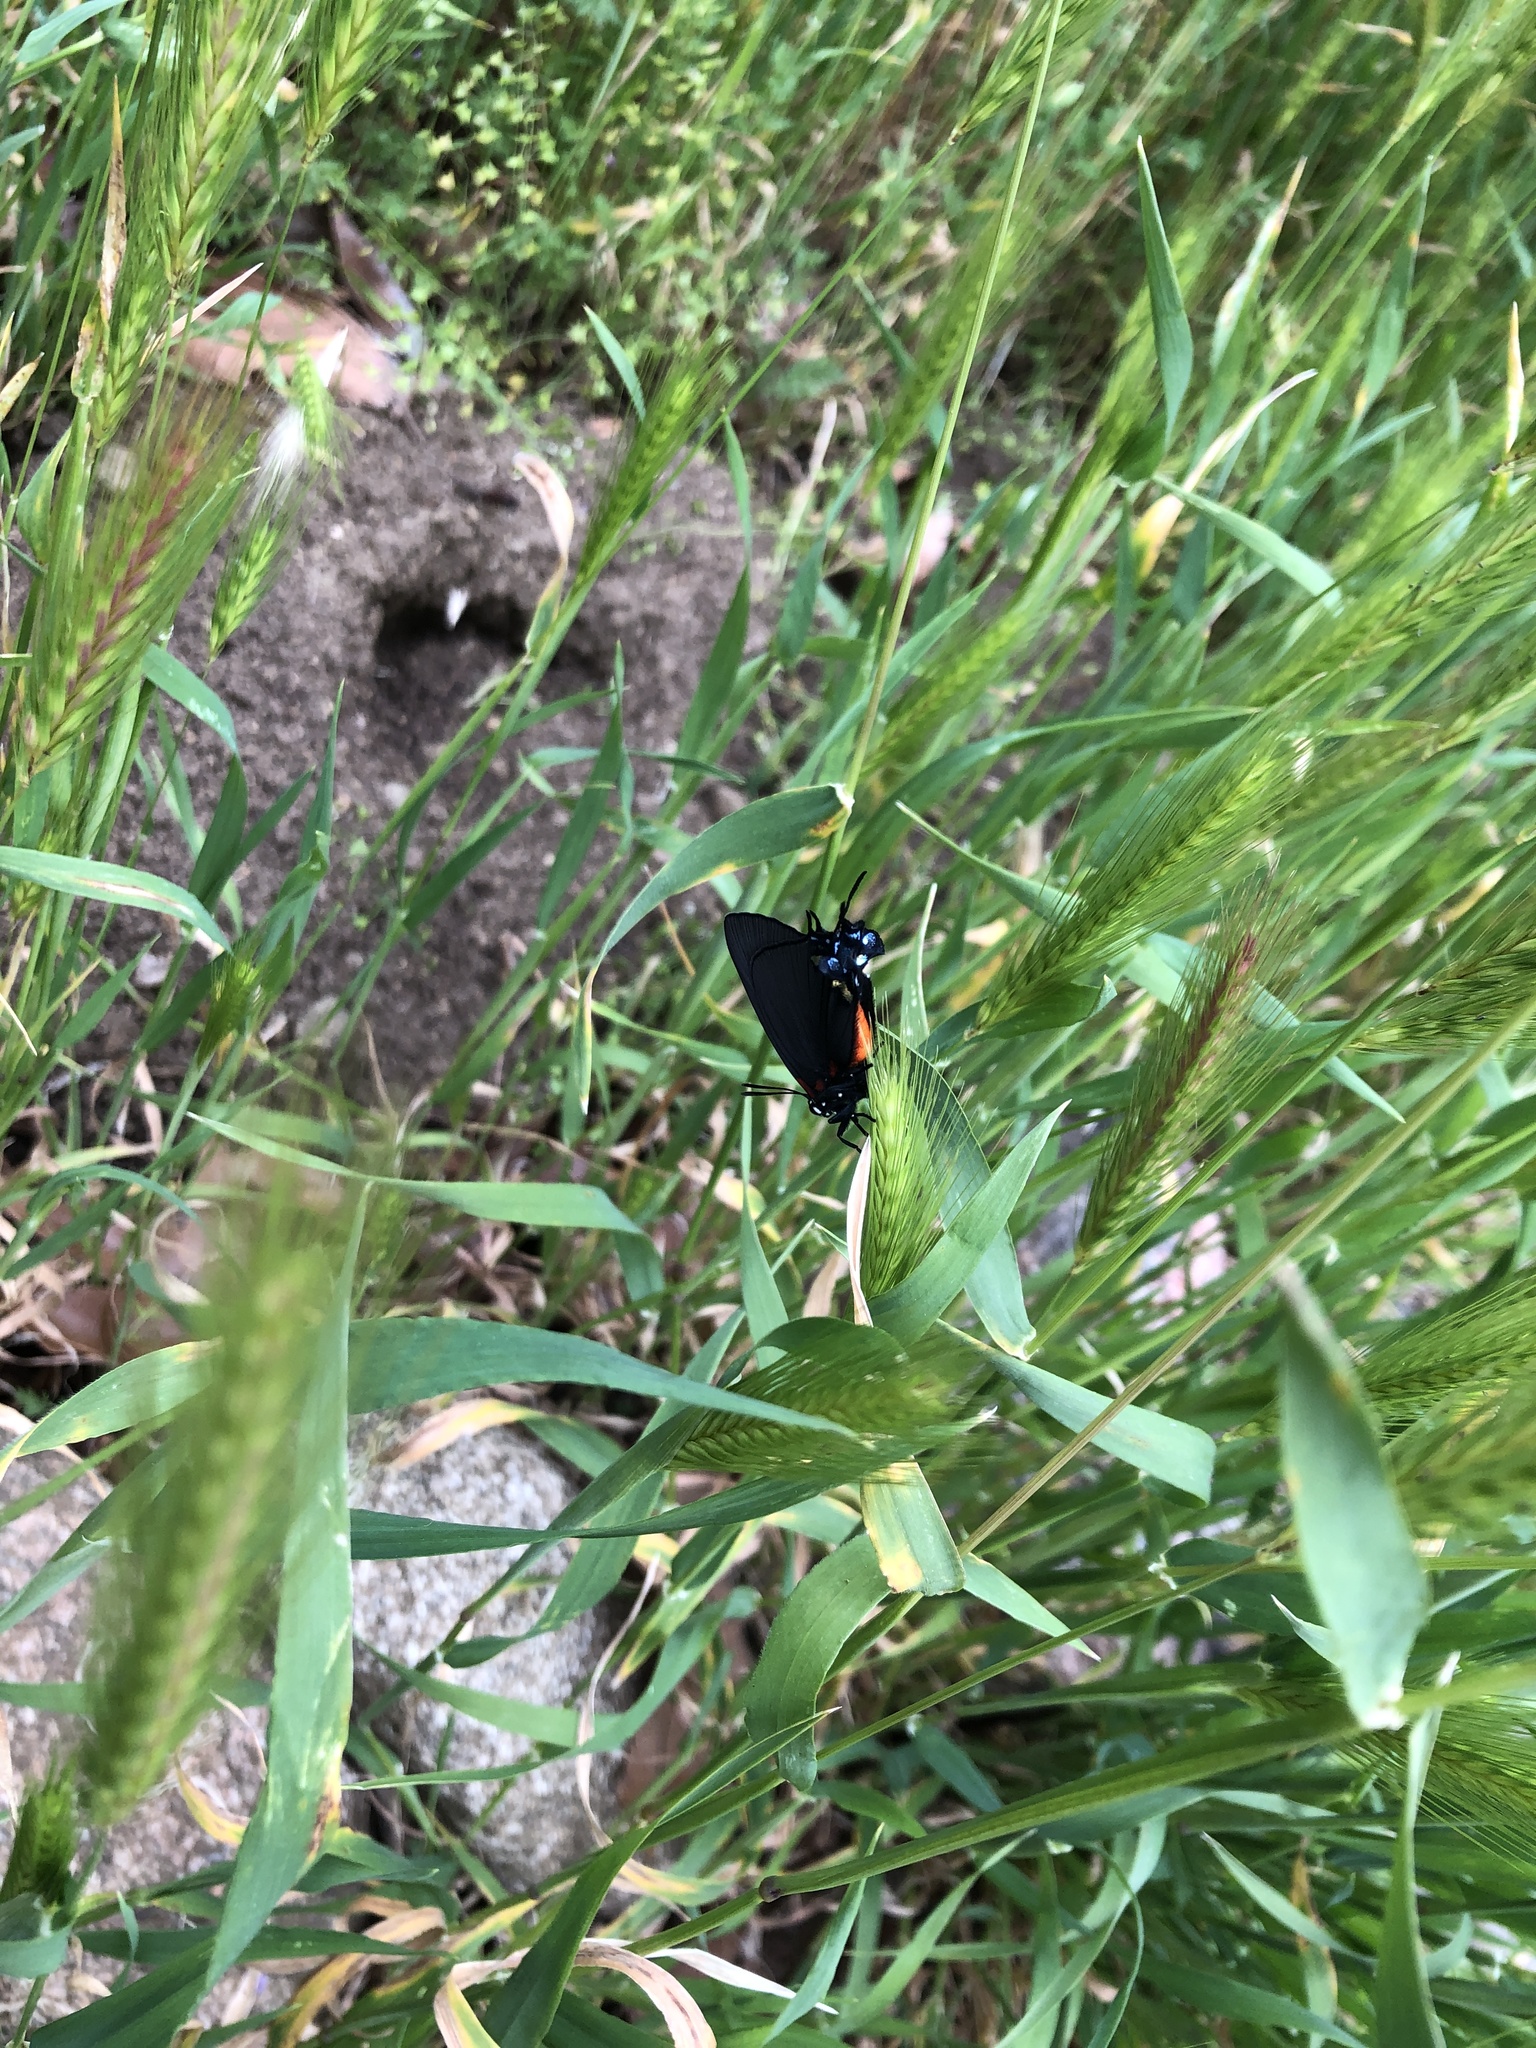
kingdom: Animalia
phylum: Arthropoda
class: Insecta
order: Lepidoptera
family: Lycaenidae
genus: Atlides
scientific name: Atlides halesus
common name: Great purple hairstreak
